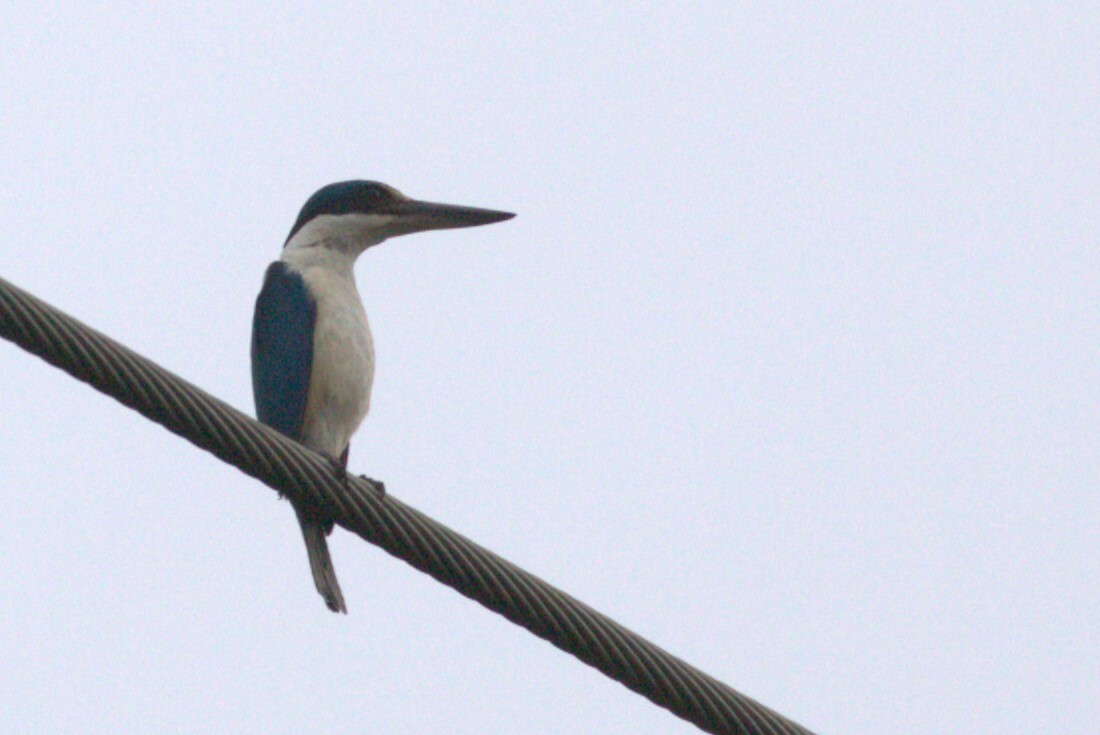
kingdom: Animalia
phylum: Chordata
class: Aves
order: Coraciiformes
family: Alcedinidae
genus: Todiramphus
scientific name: Todiramphus sanctus
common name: Sacred kingfisher
